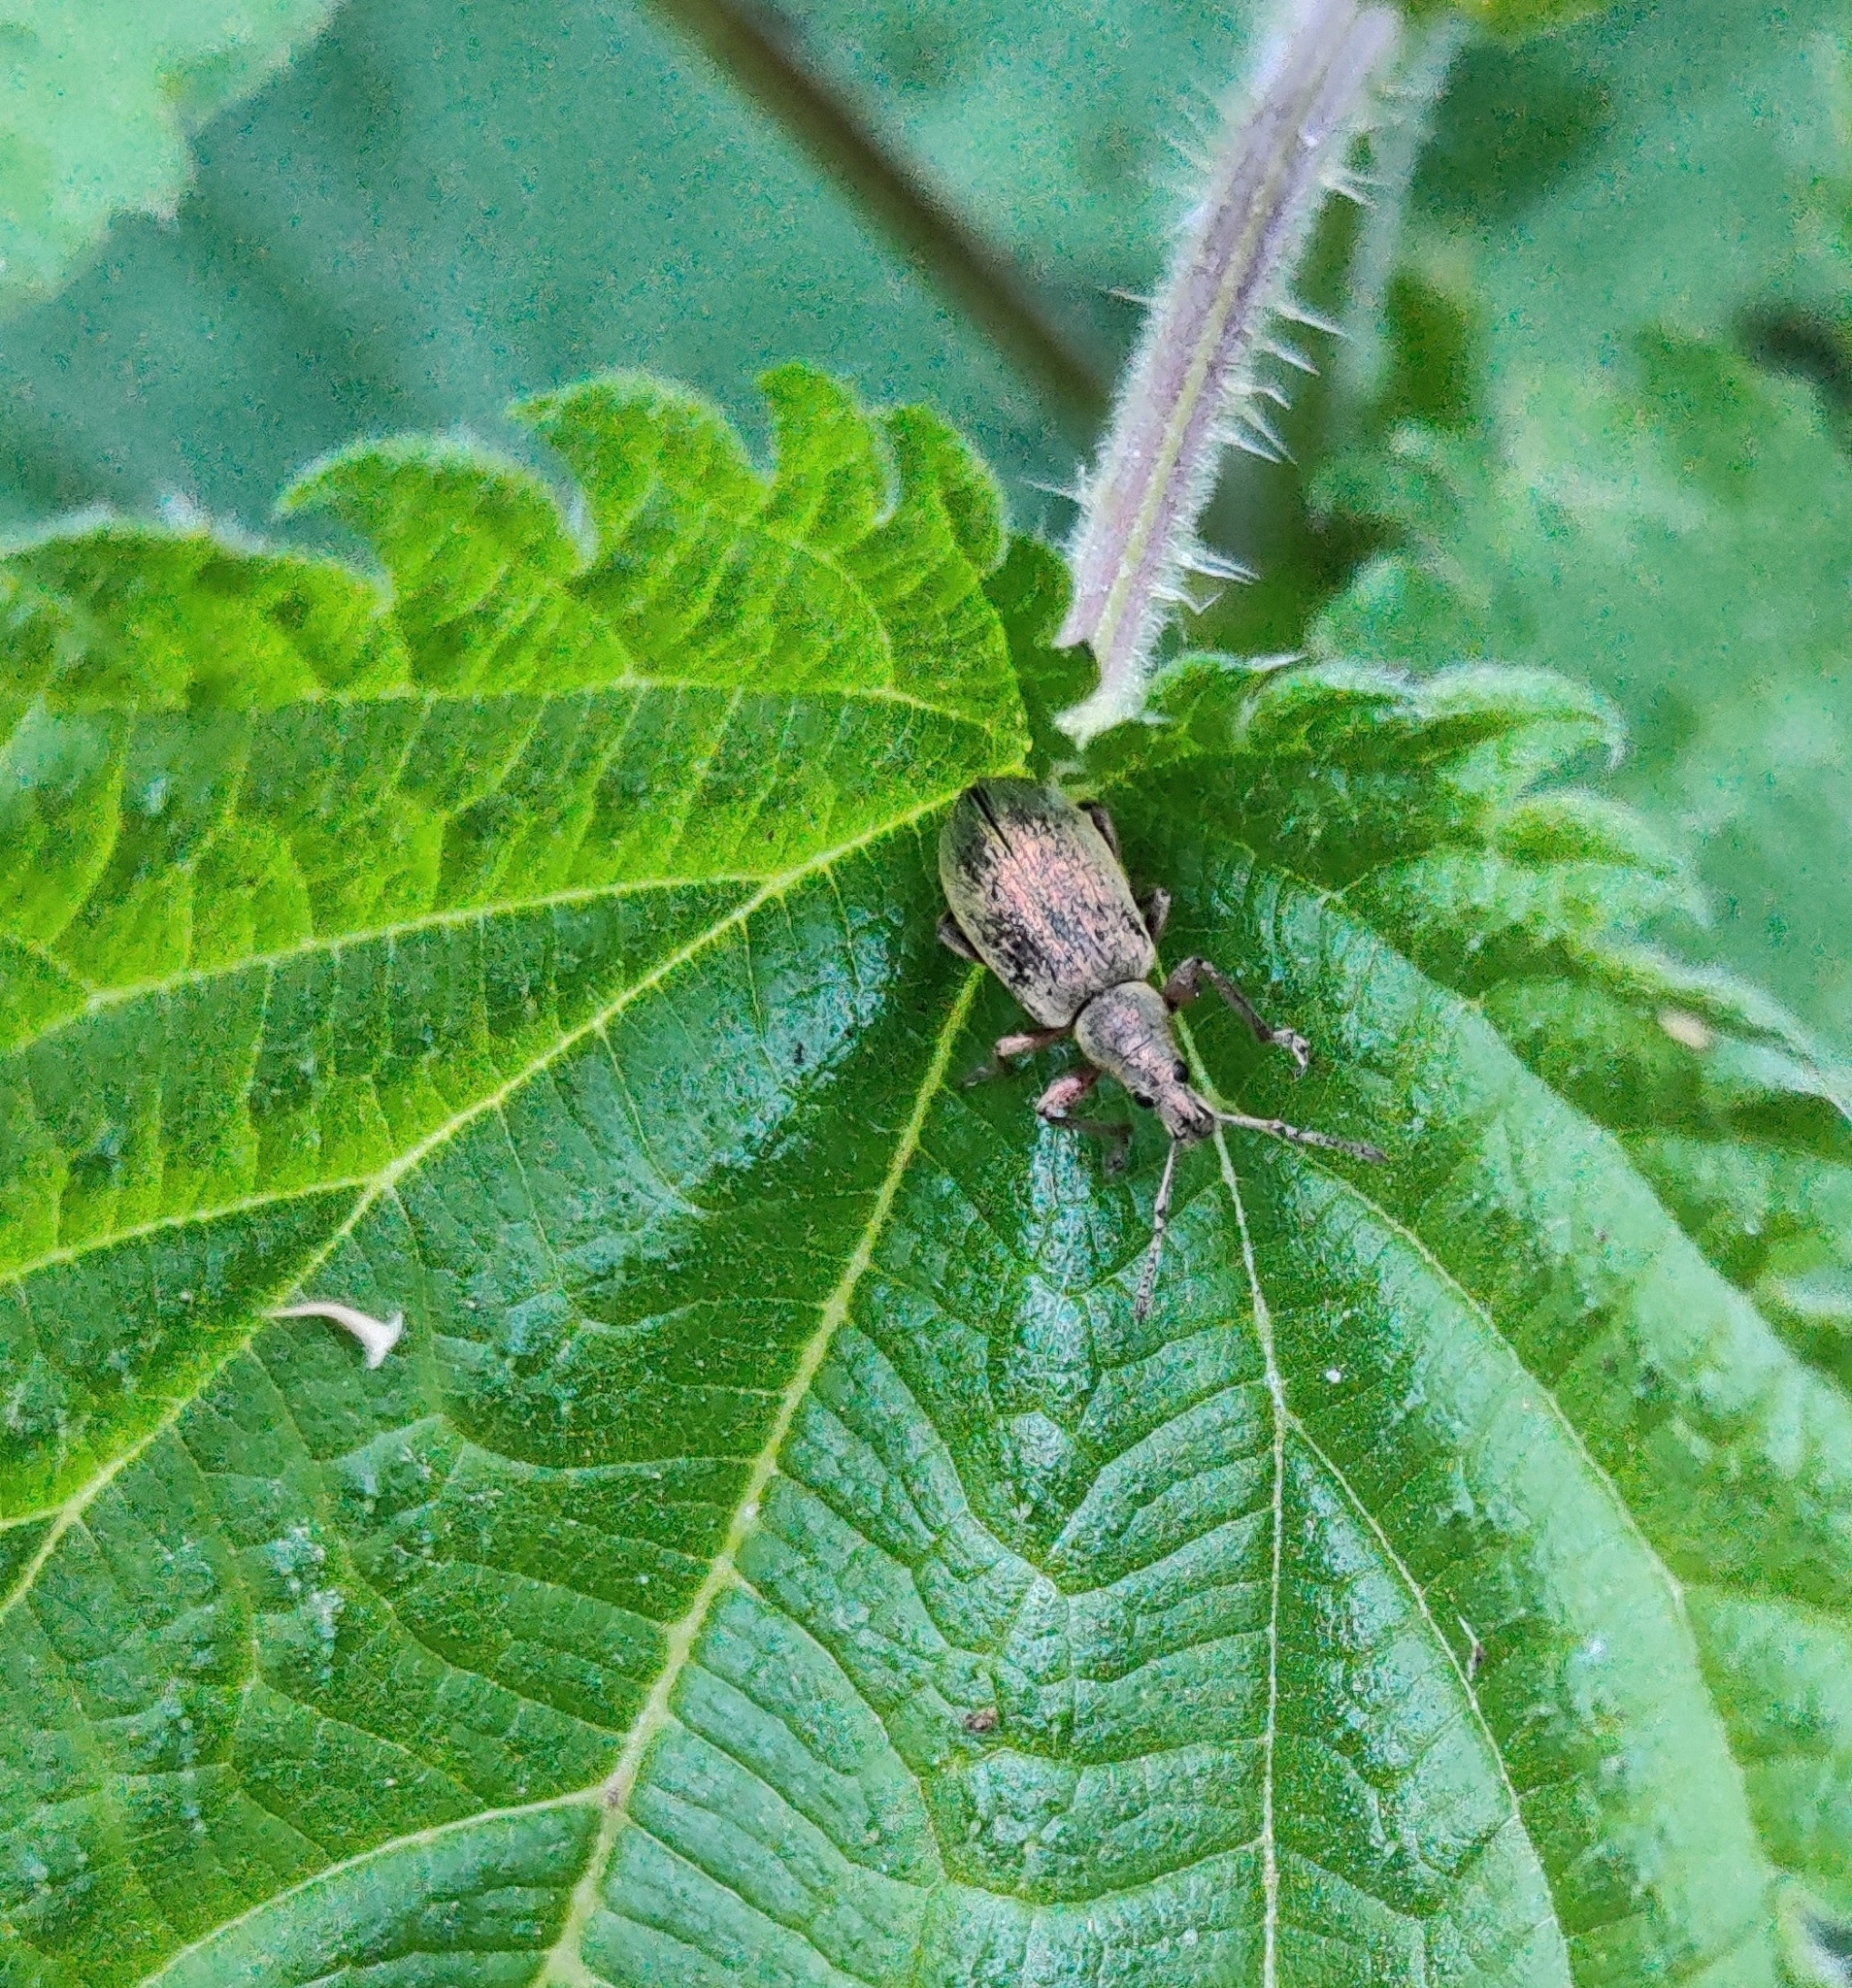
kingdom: Animalia
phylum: Arthropoda
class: Insecta
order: Coleoptera
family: Curculionidae
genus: Phyllobius
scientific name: Phyllobius pomaceus
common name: Green nettle weevil
